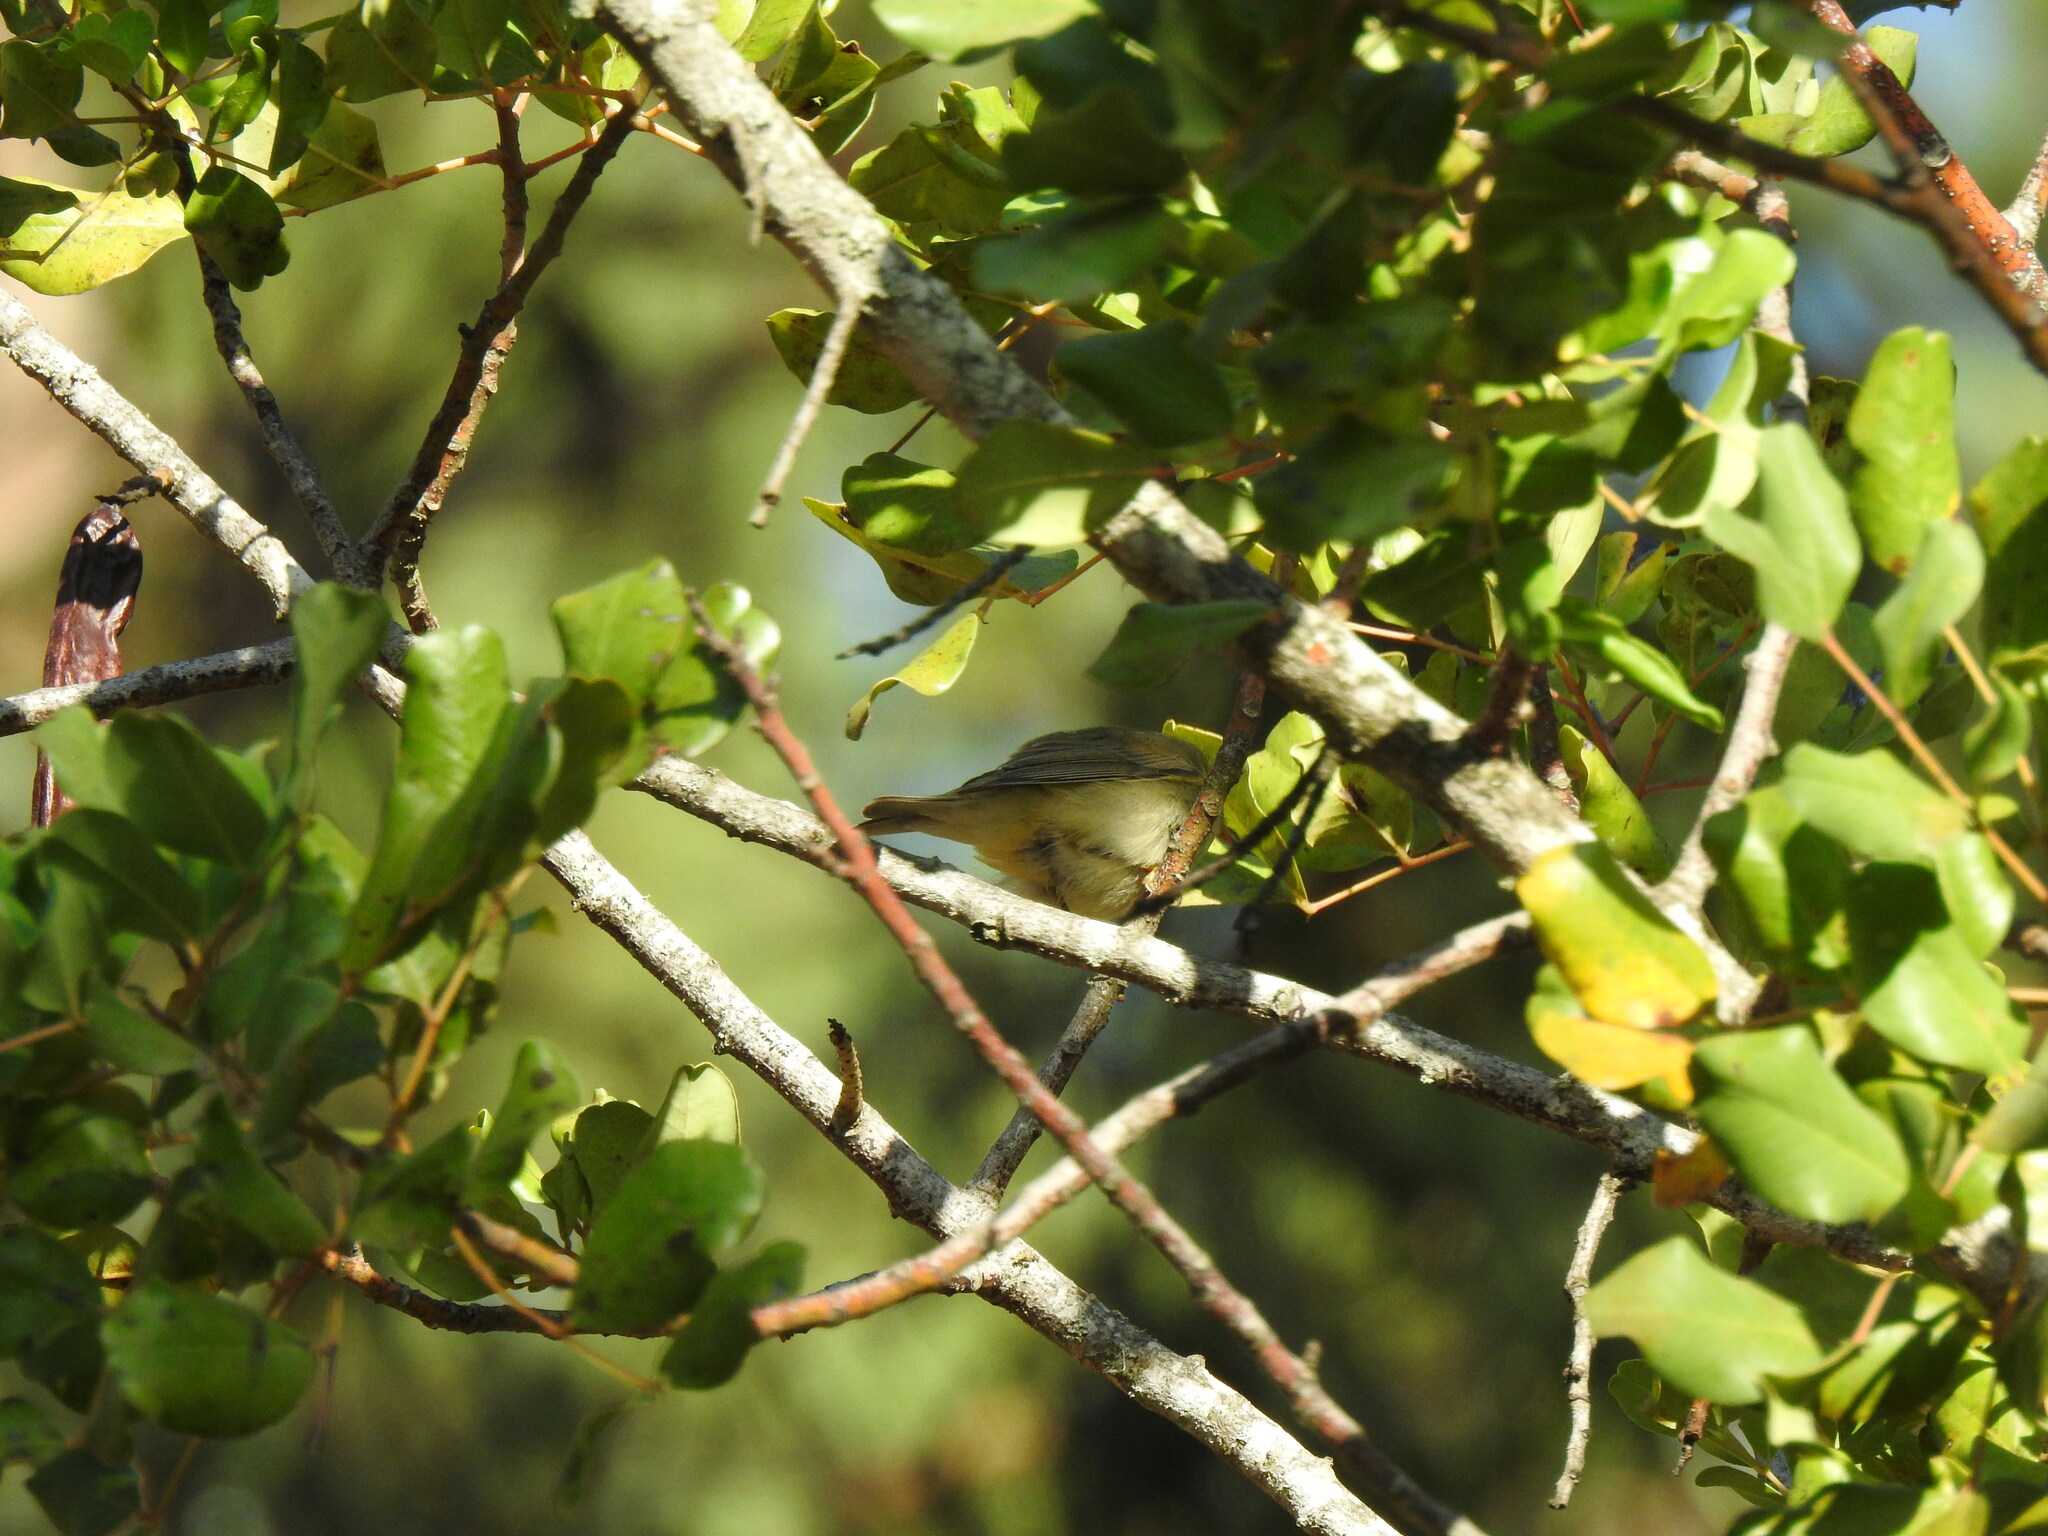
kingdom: Animalia
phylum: Chordata
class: Aves
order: Passeriformes
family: Phylloscopidae
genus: Phylloscopus
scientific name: Phylloscopus trochilus
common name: Willow warbler
